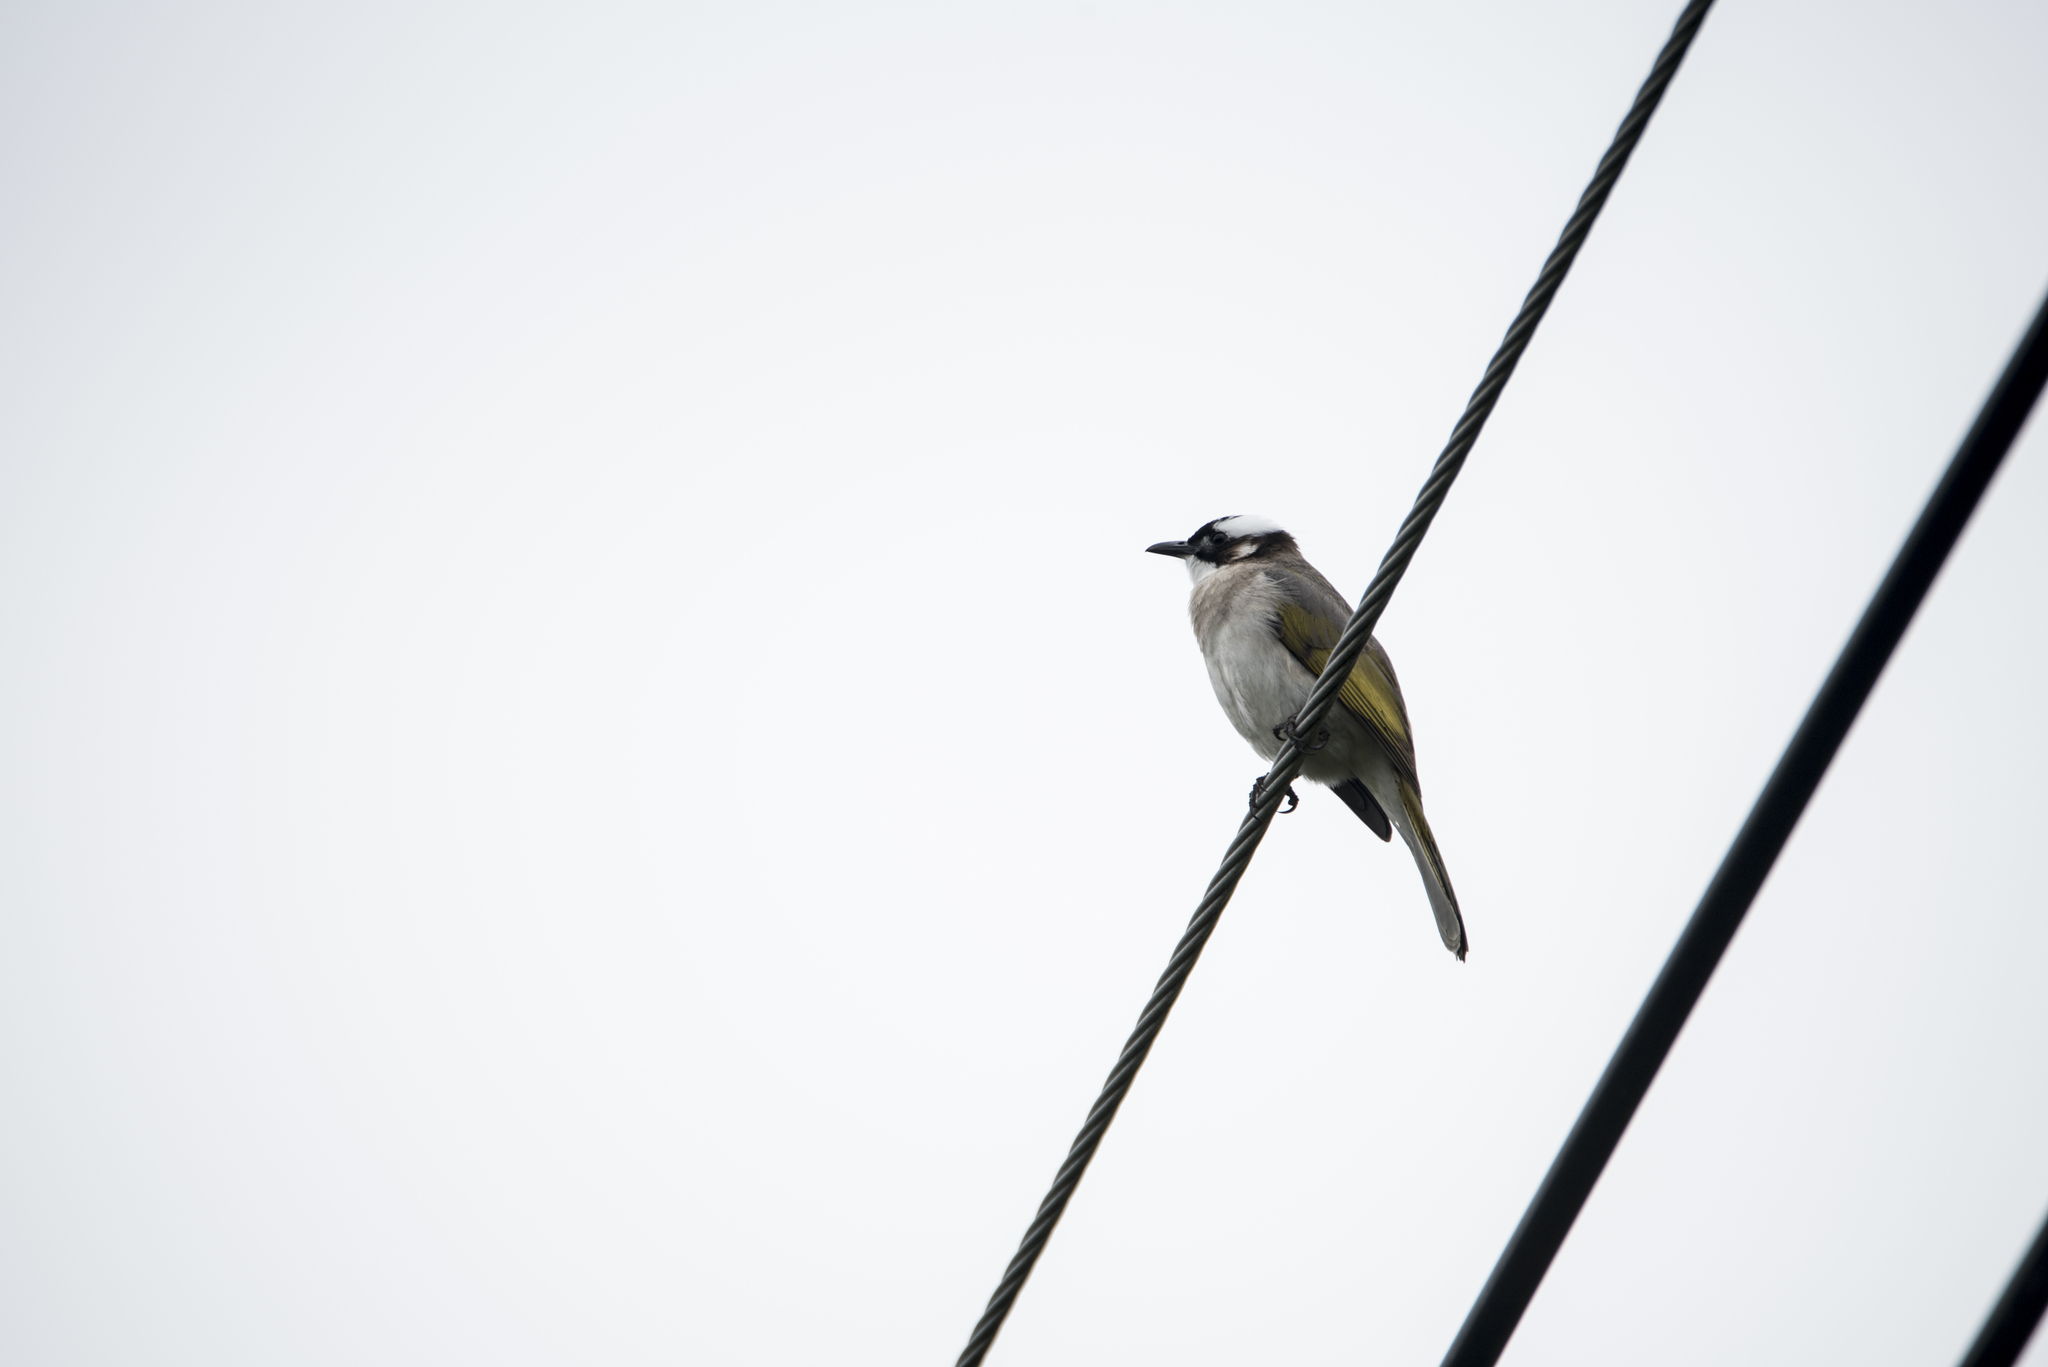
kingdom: Animalia
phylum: Chordata
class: Aves
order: Passeriformes
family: Pycnonotidae
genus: Pycnonotus
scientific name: Pycnonotus sinensis
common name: Light-vented bulbul
